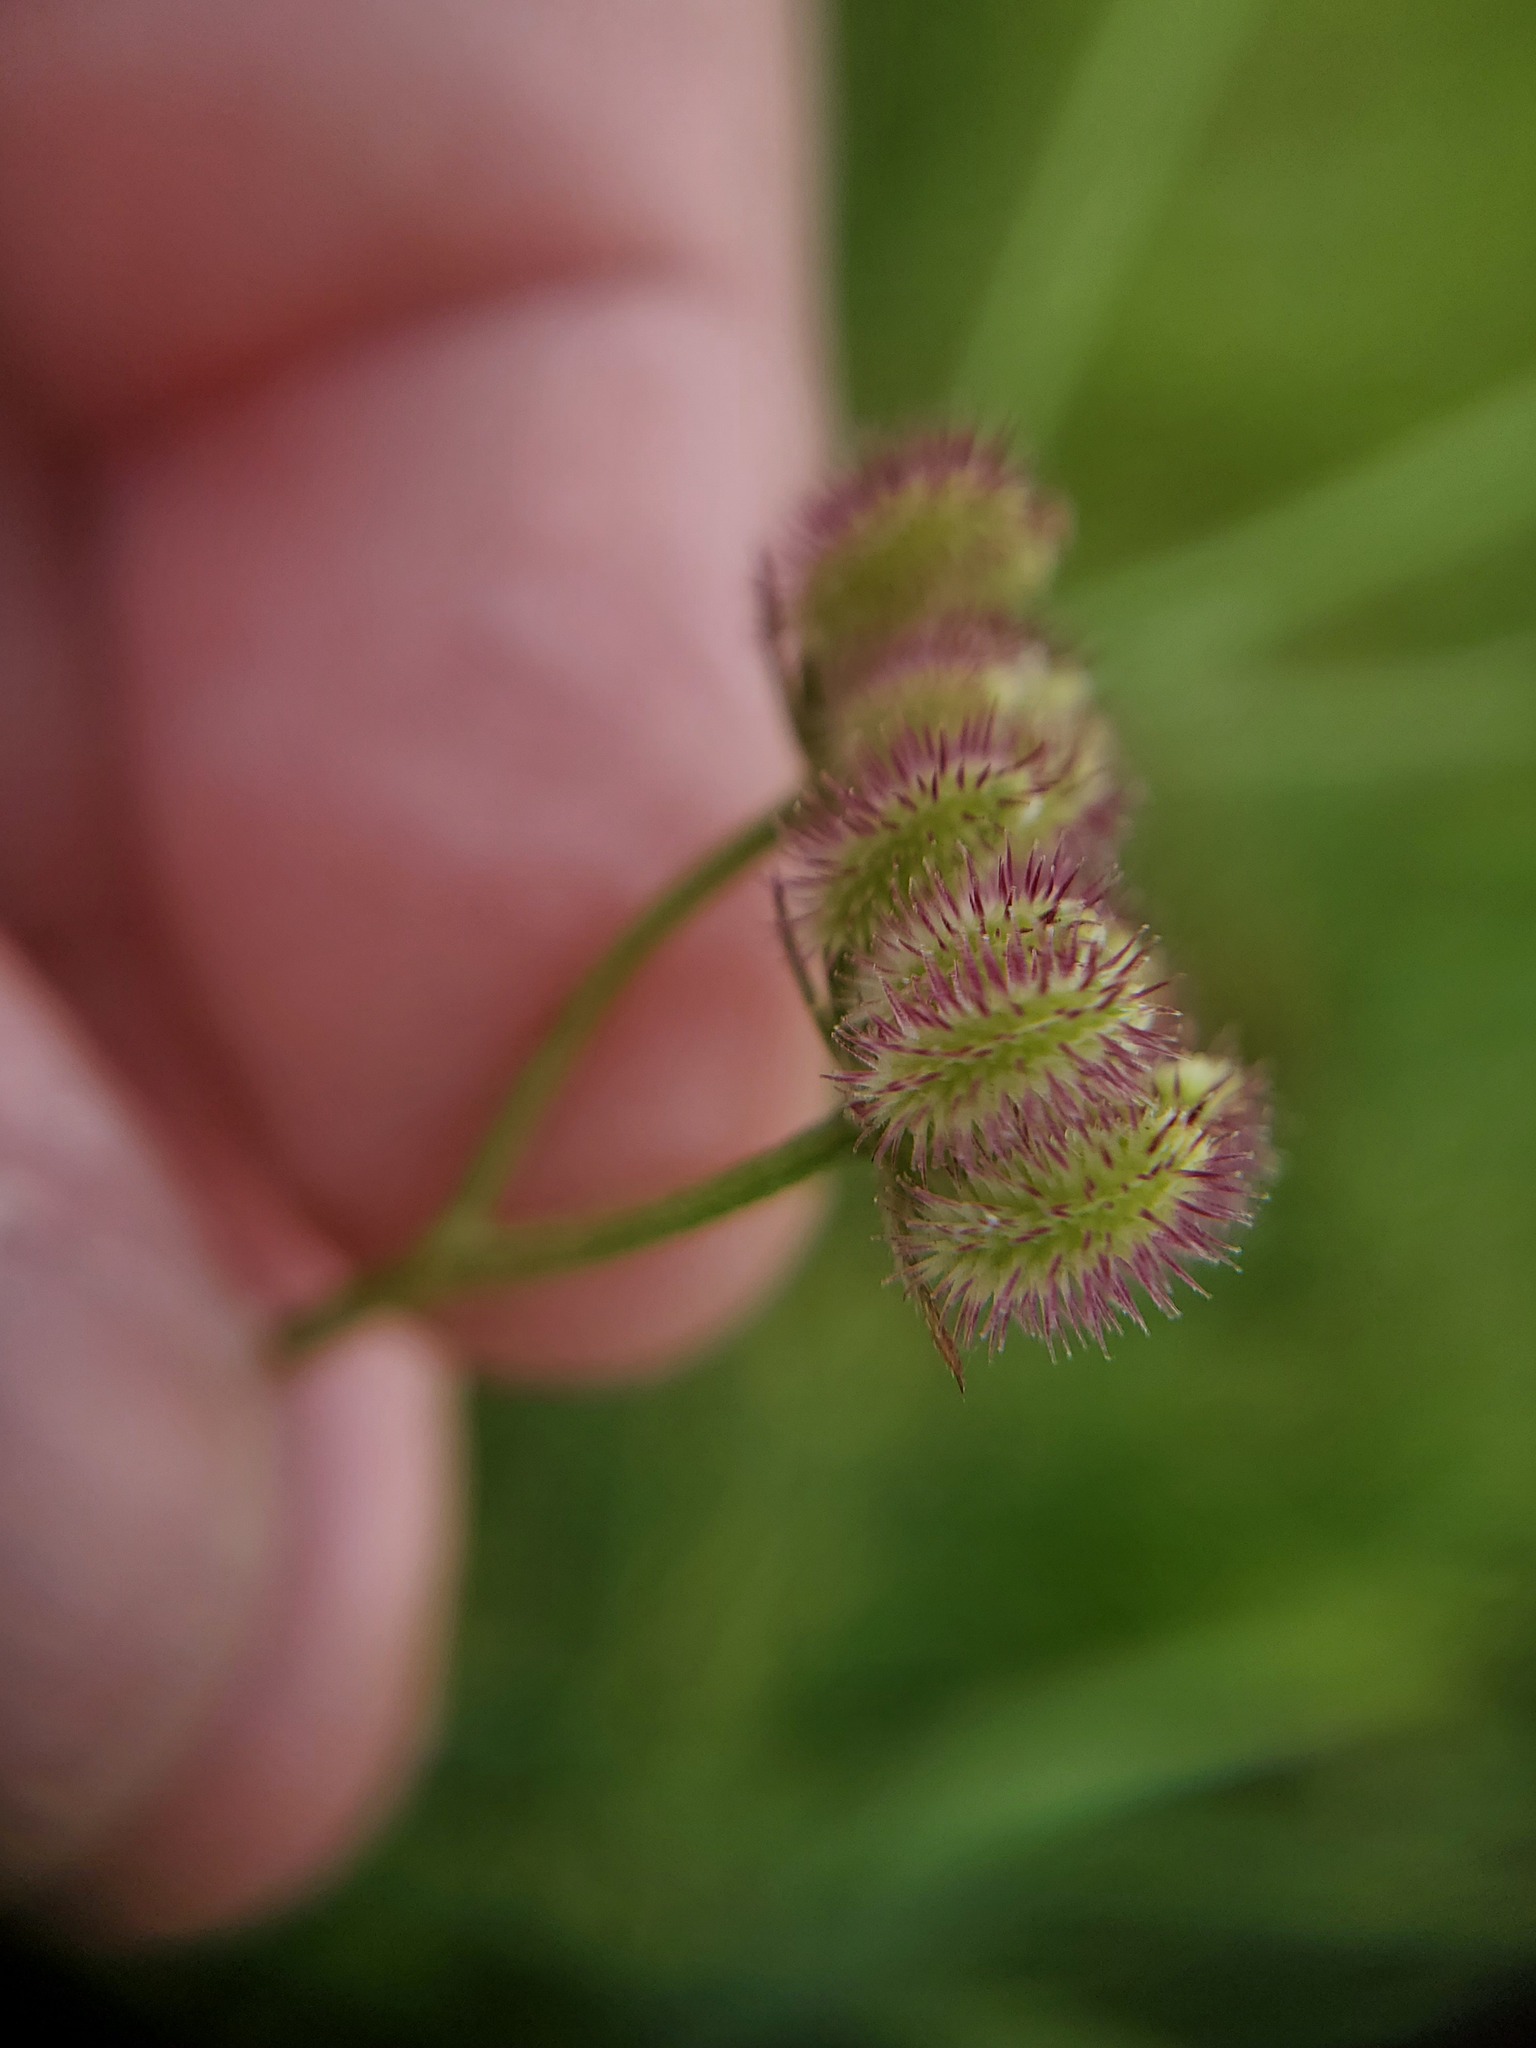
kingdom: Plantae
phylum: Tracheophyta
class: Magnoliopsida
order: Apiales
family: Apiaceae
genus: Torilis
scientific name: Torilis arvensis
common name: Spreading hedge-parsley
